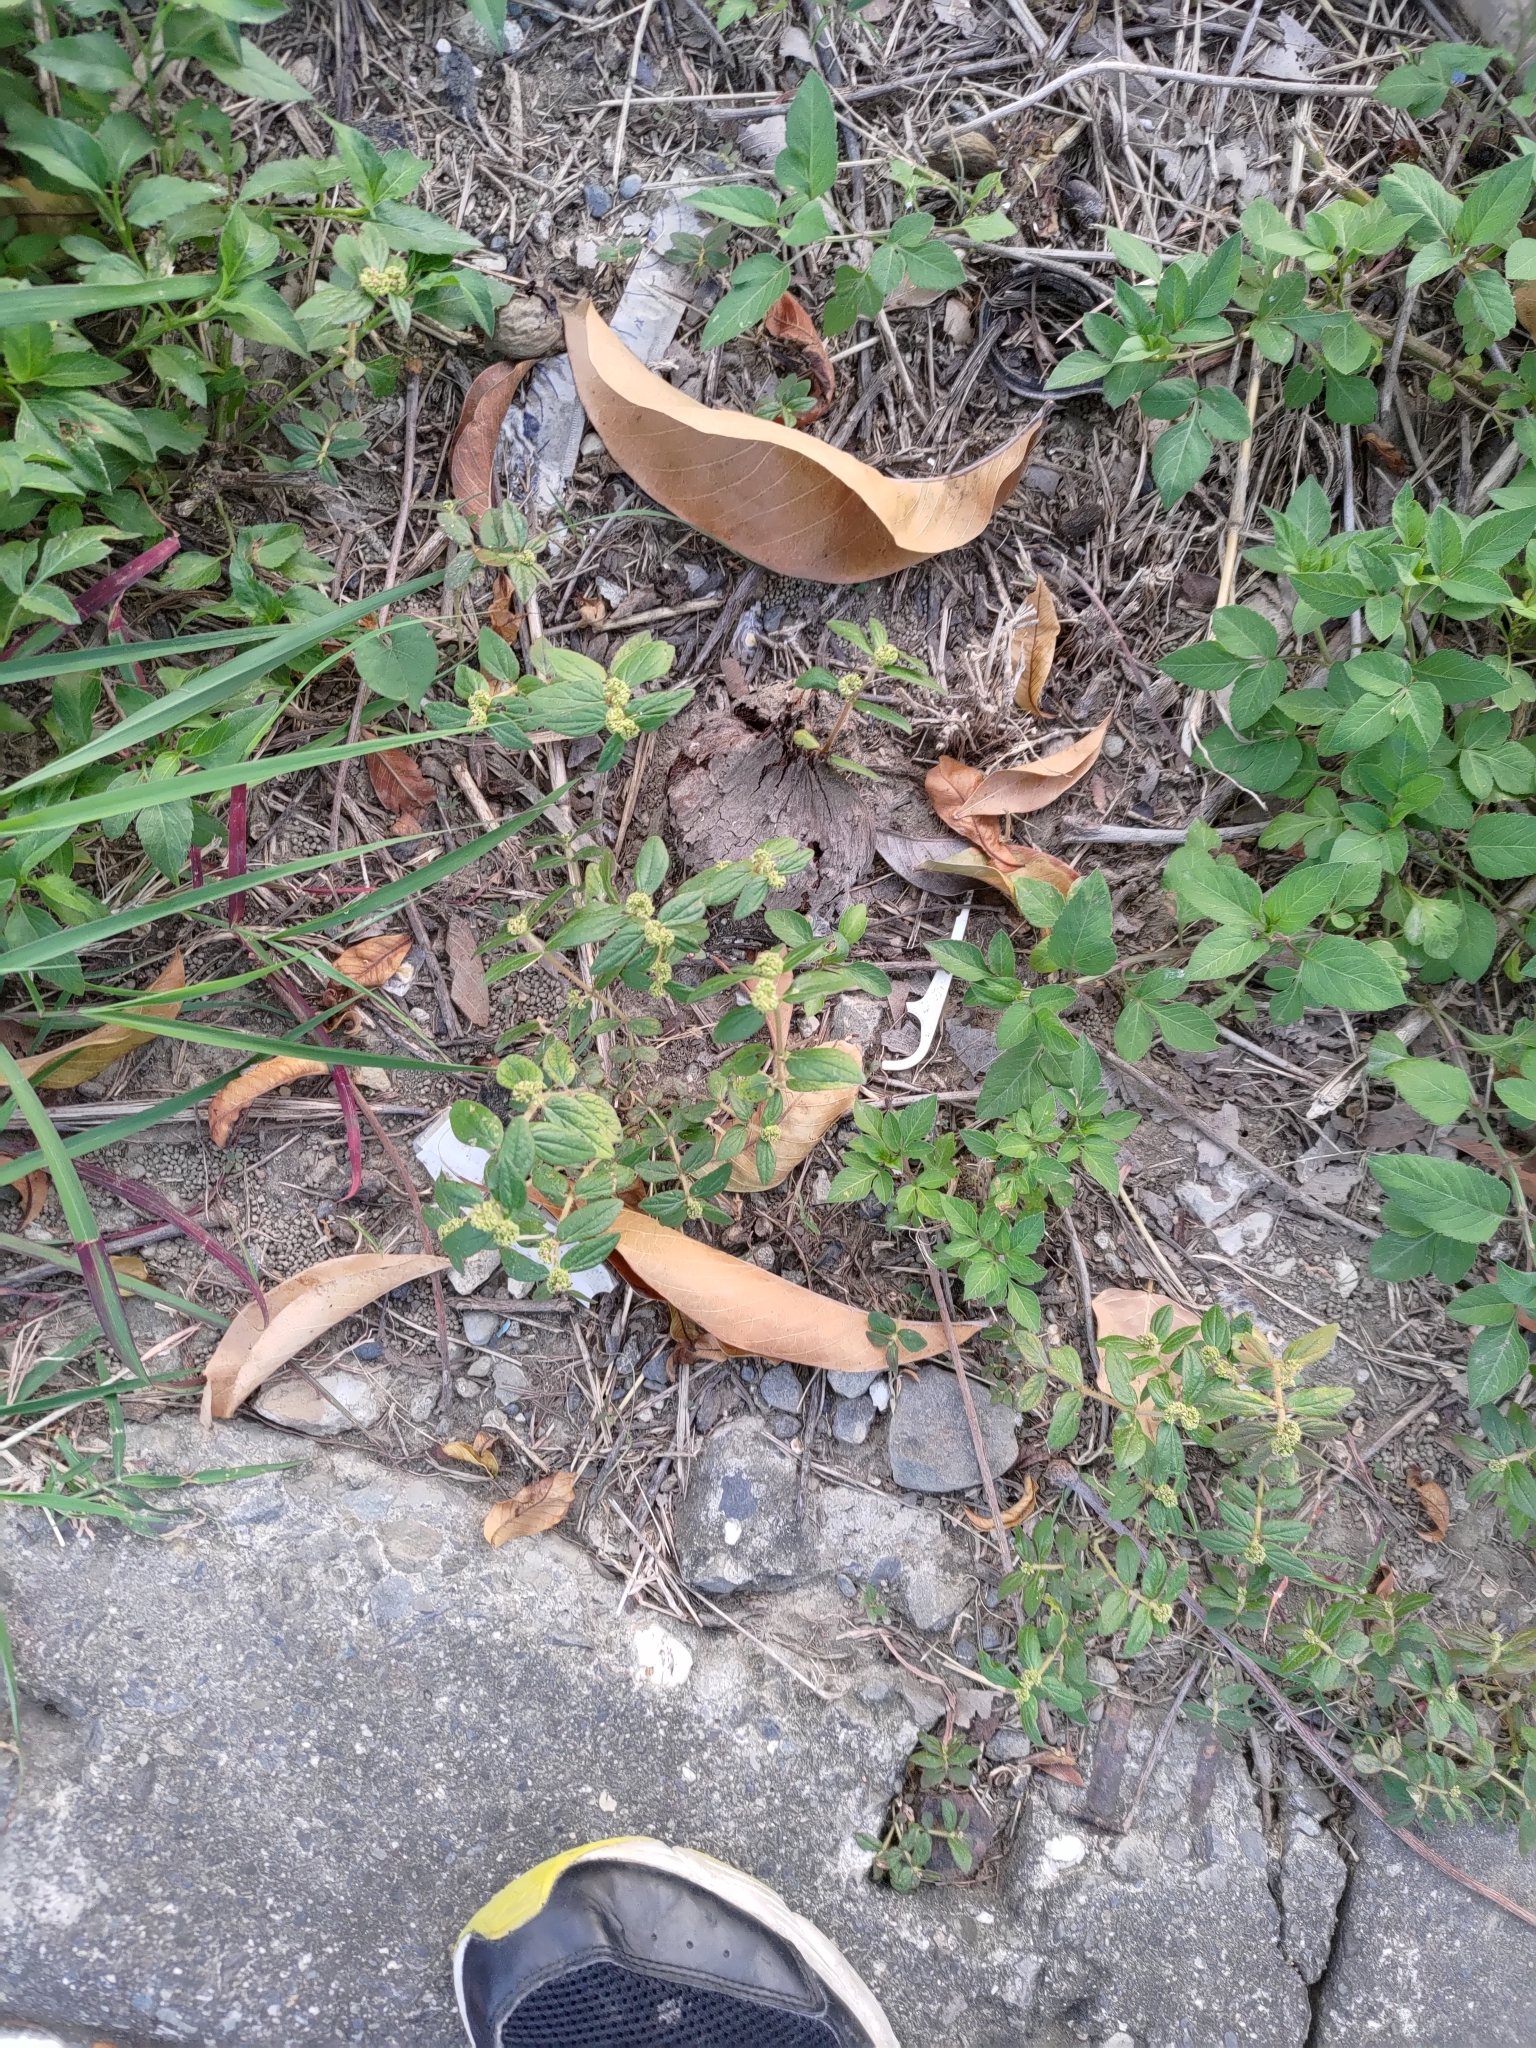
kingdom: Plantae
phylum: Tracheophyta
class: Magnoliopsida
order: Malpighiales
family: Euphorbiaceae
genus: Euphorbia
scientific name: Euphorbia hirta
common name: Pillpod sandmat
